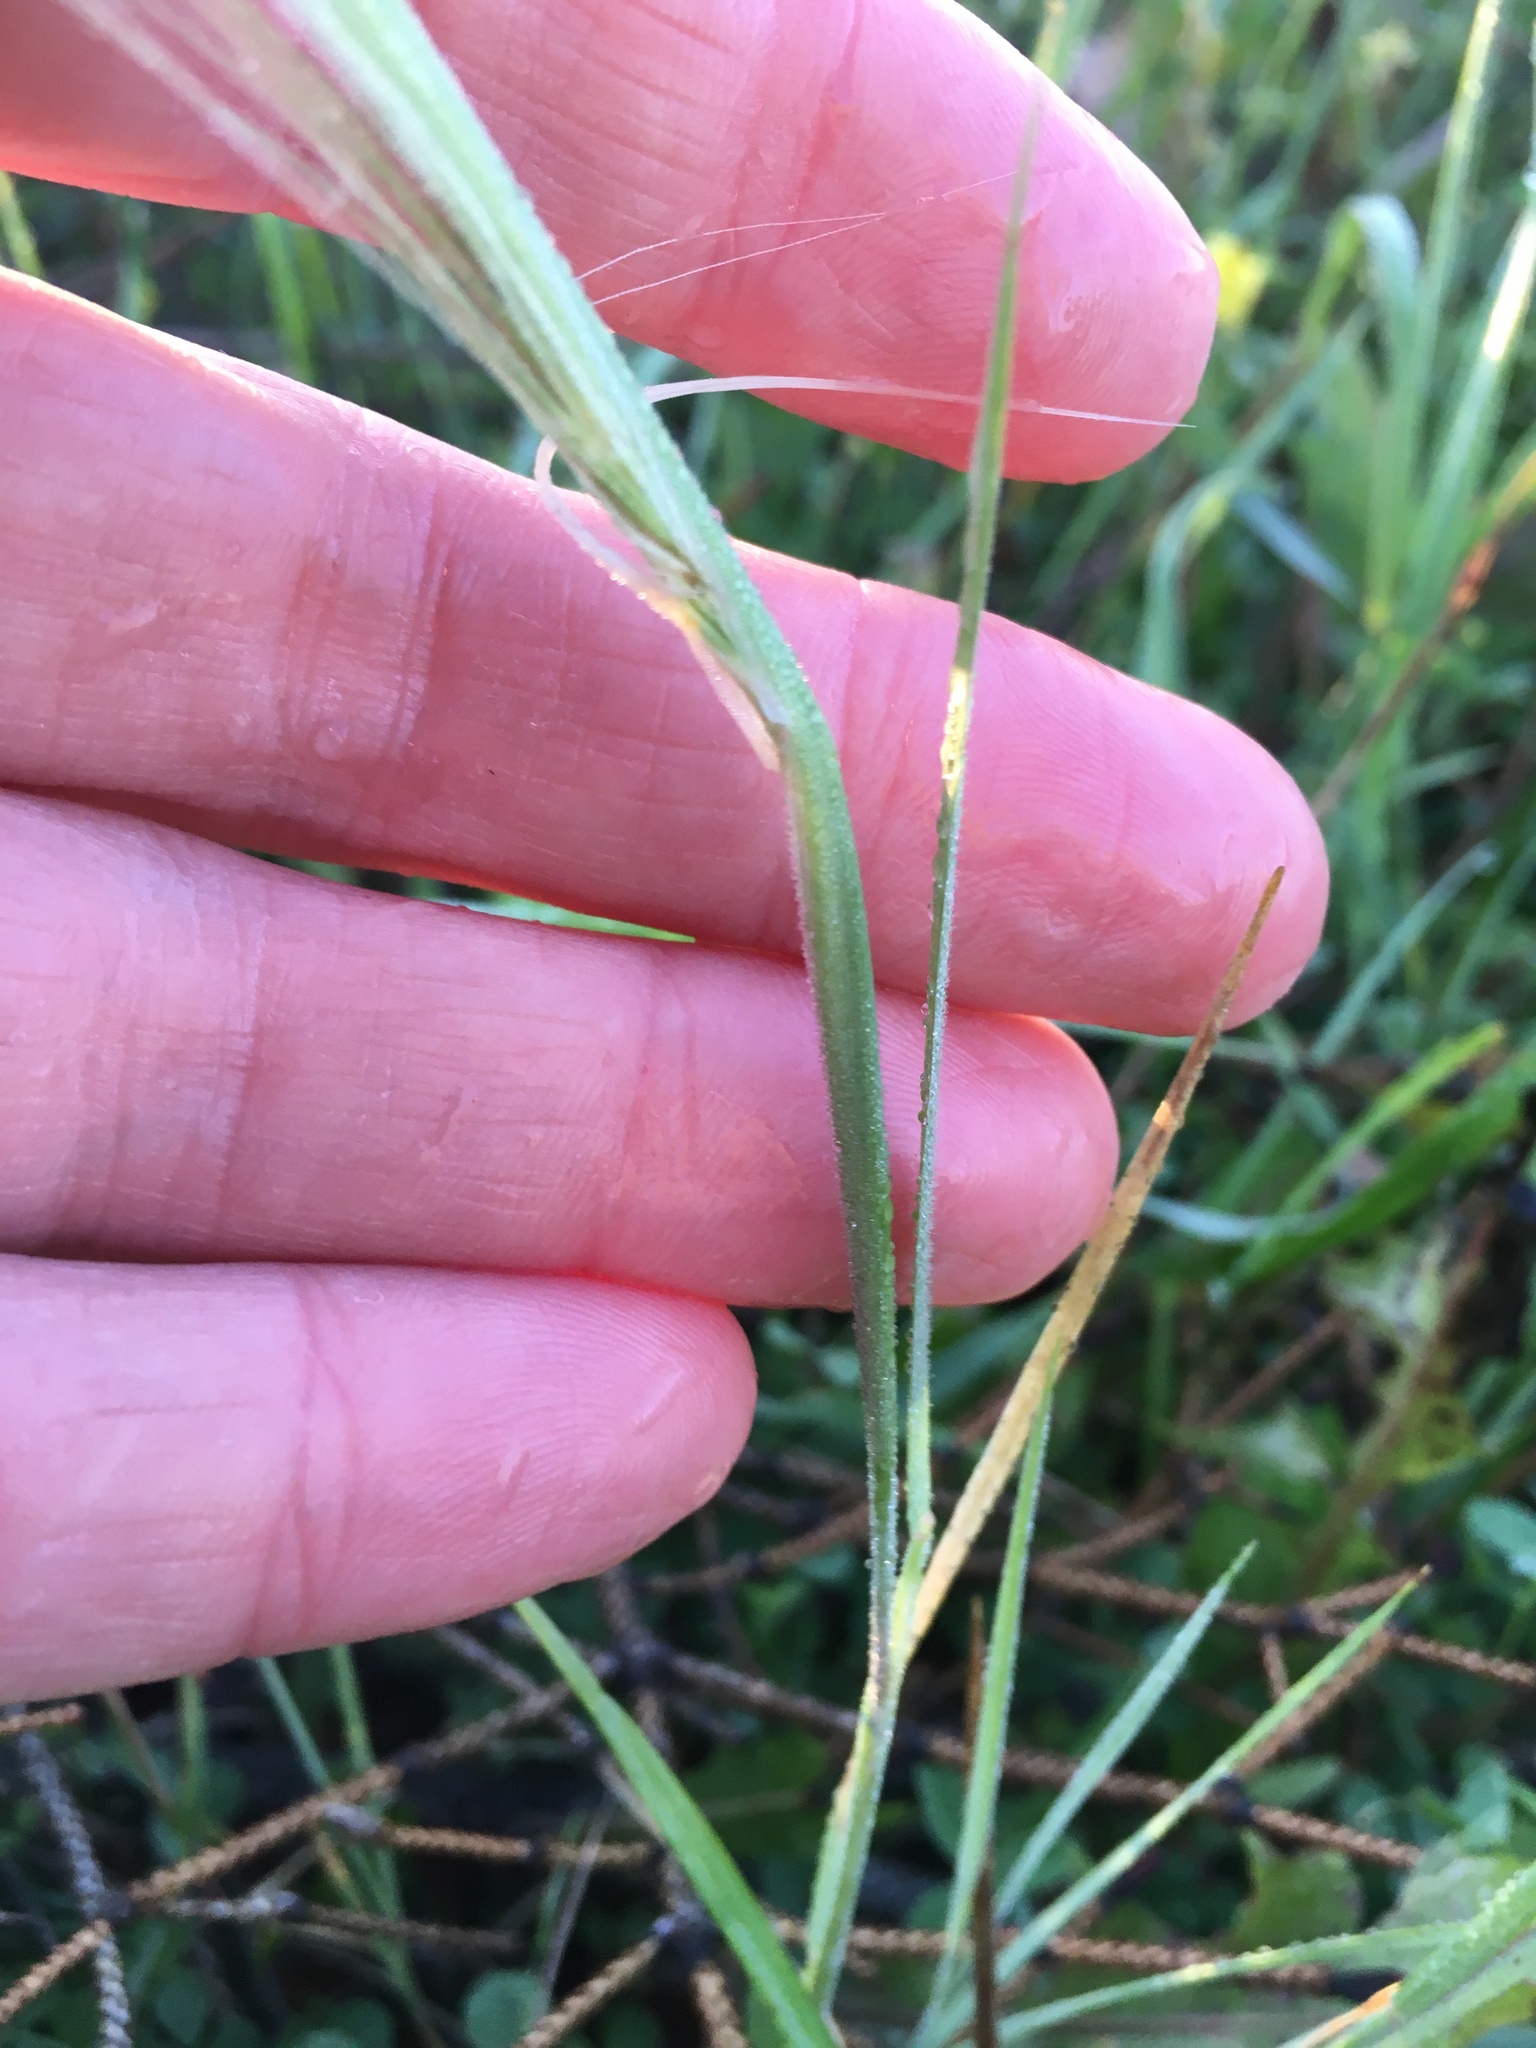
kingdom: Plantae
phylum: Tracheophyta
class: Liliopsida
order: Poales
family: Poaceae
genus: Hordeum
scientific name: Hordeum jubatum
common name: Foxtail barley
